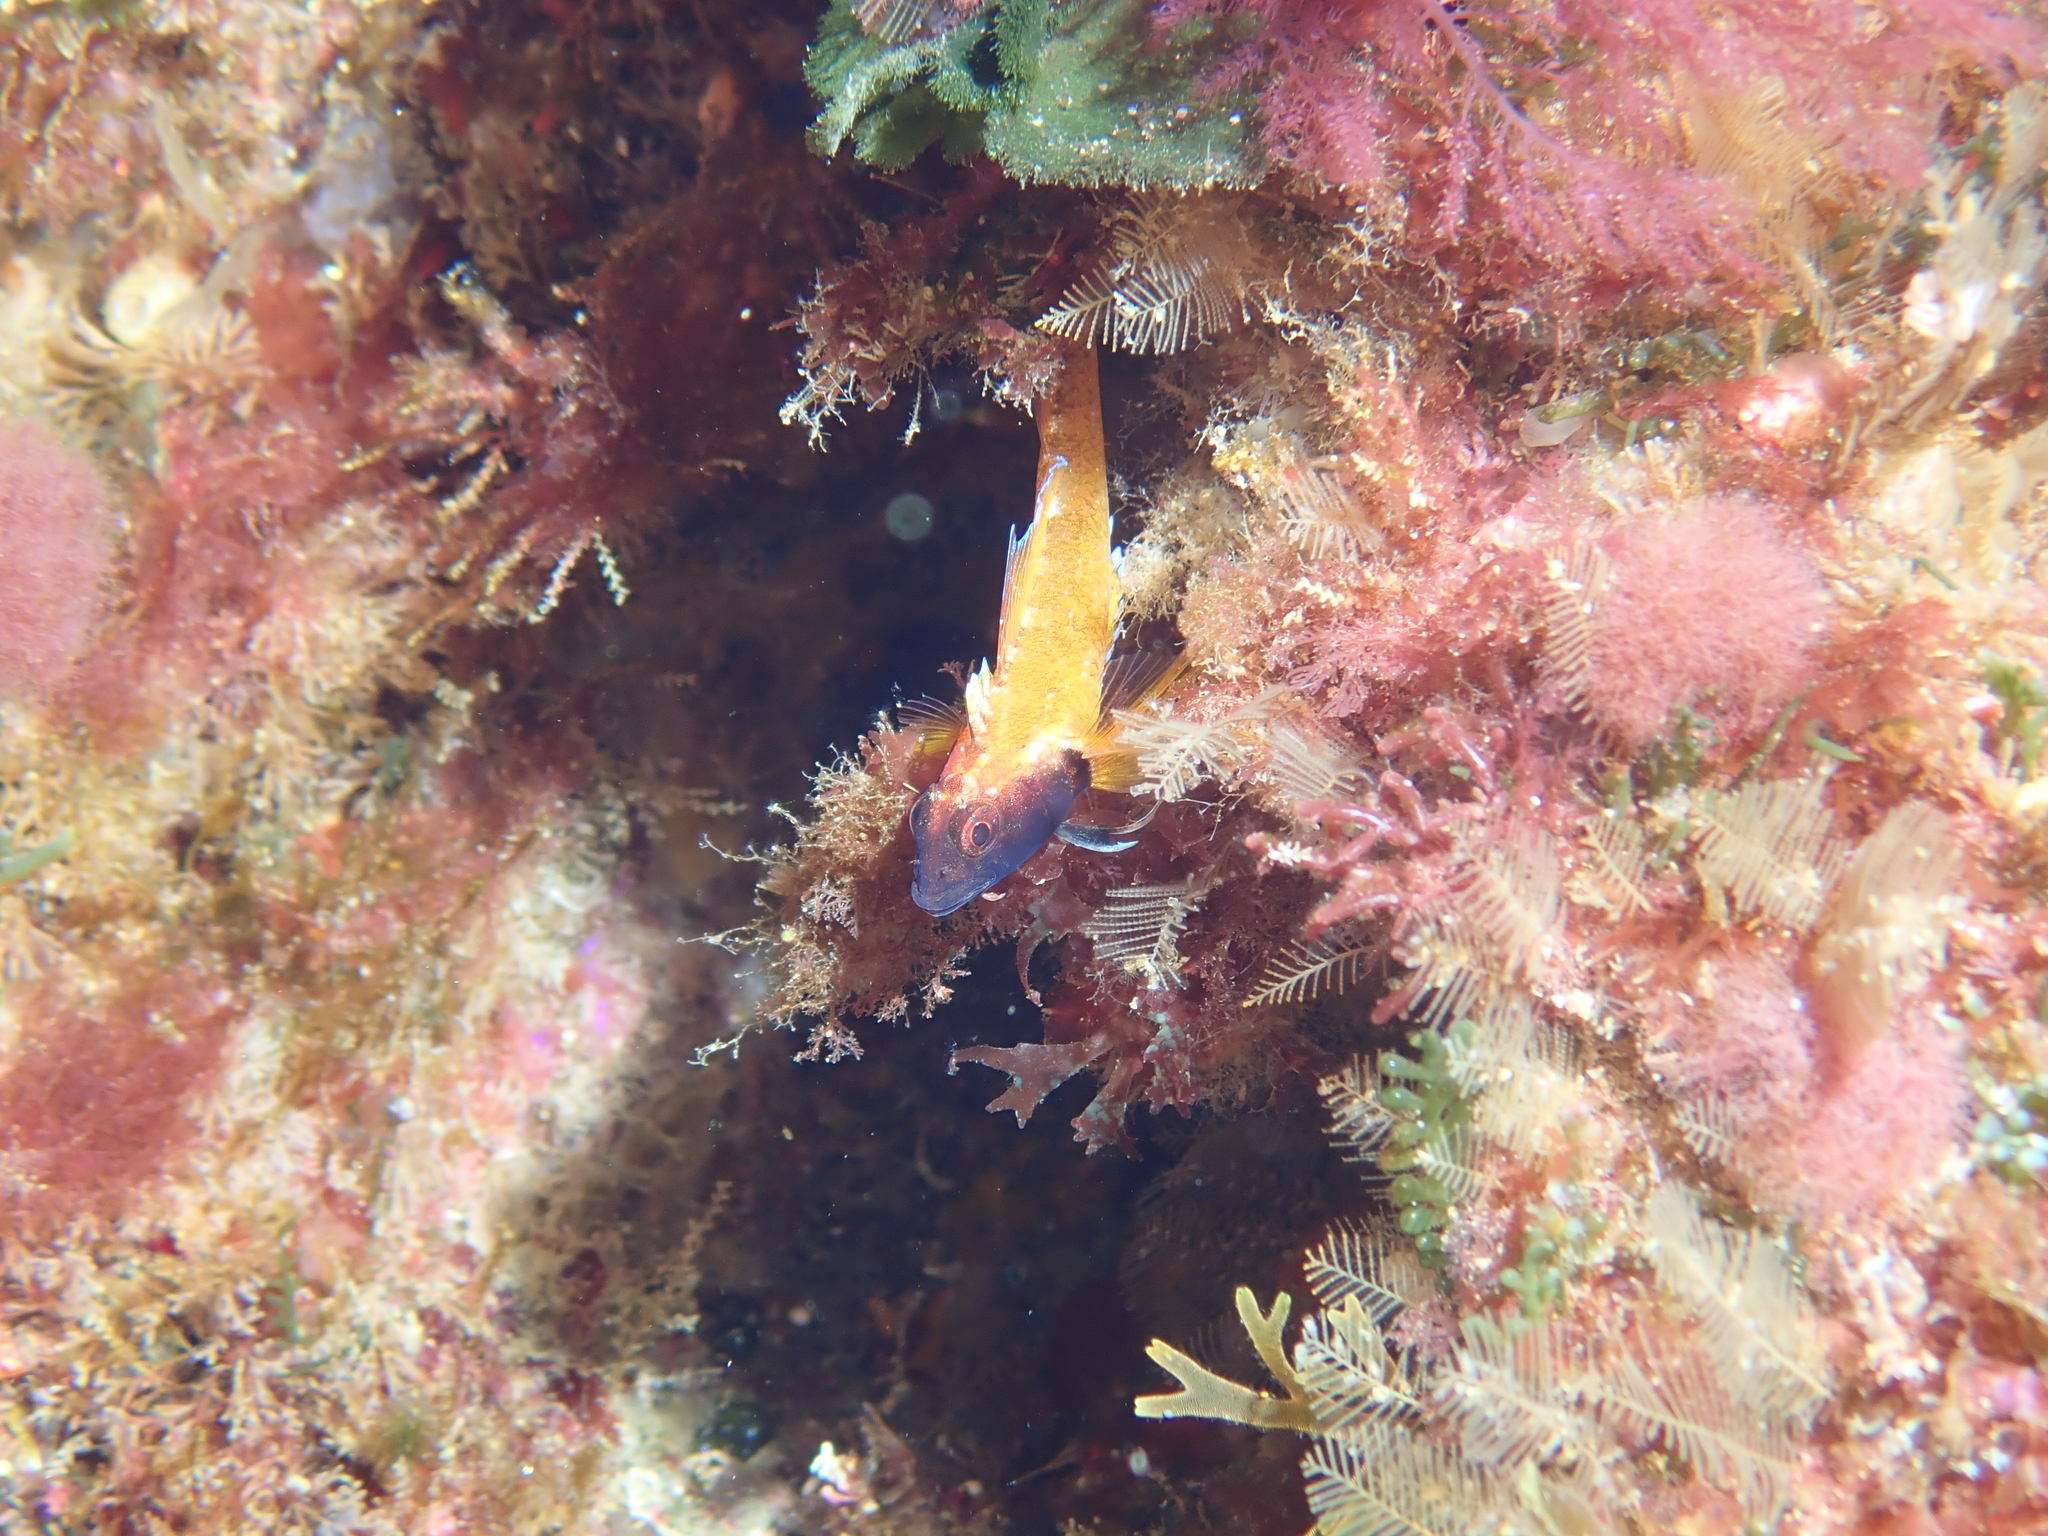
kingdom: Animalia
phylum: Chordata
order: Perciformes
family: Tripterygiidae
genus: Tripterygion
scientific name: Tripterygion delaisi
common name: Black-face blenny
